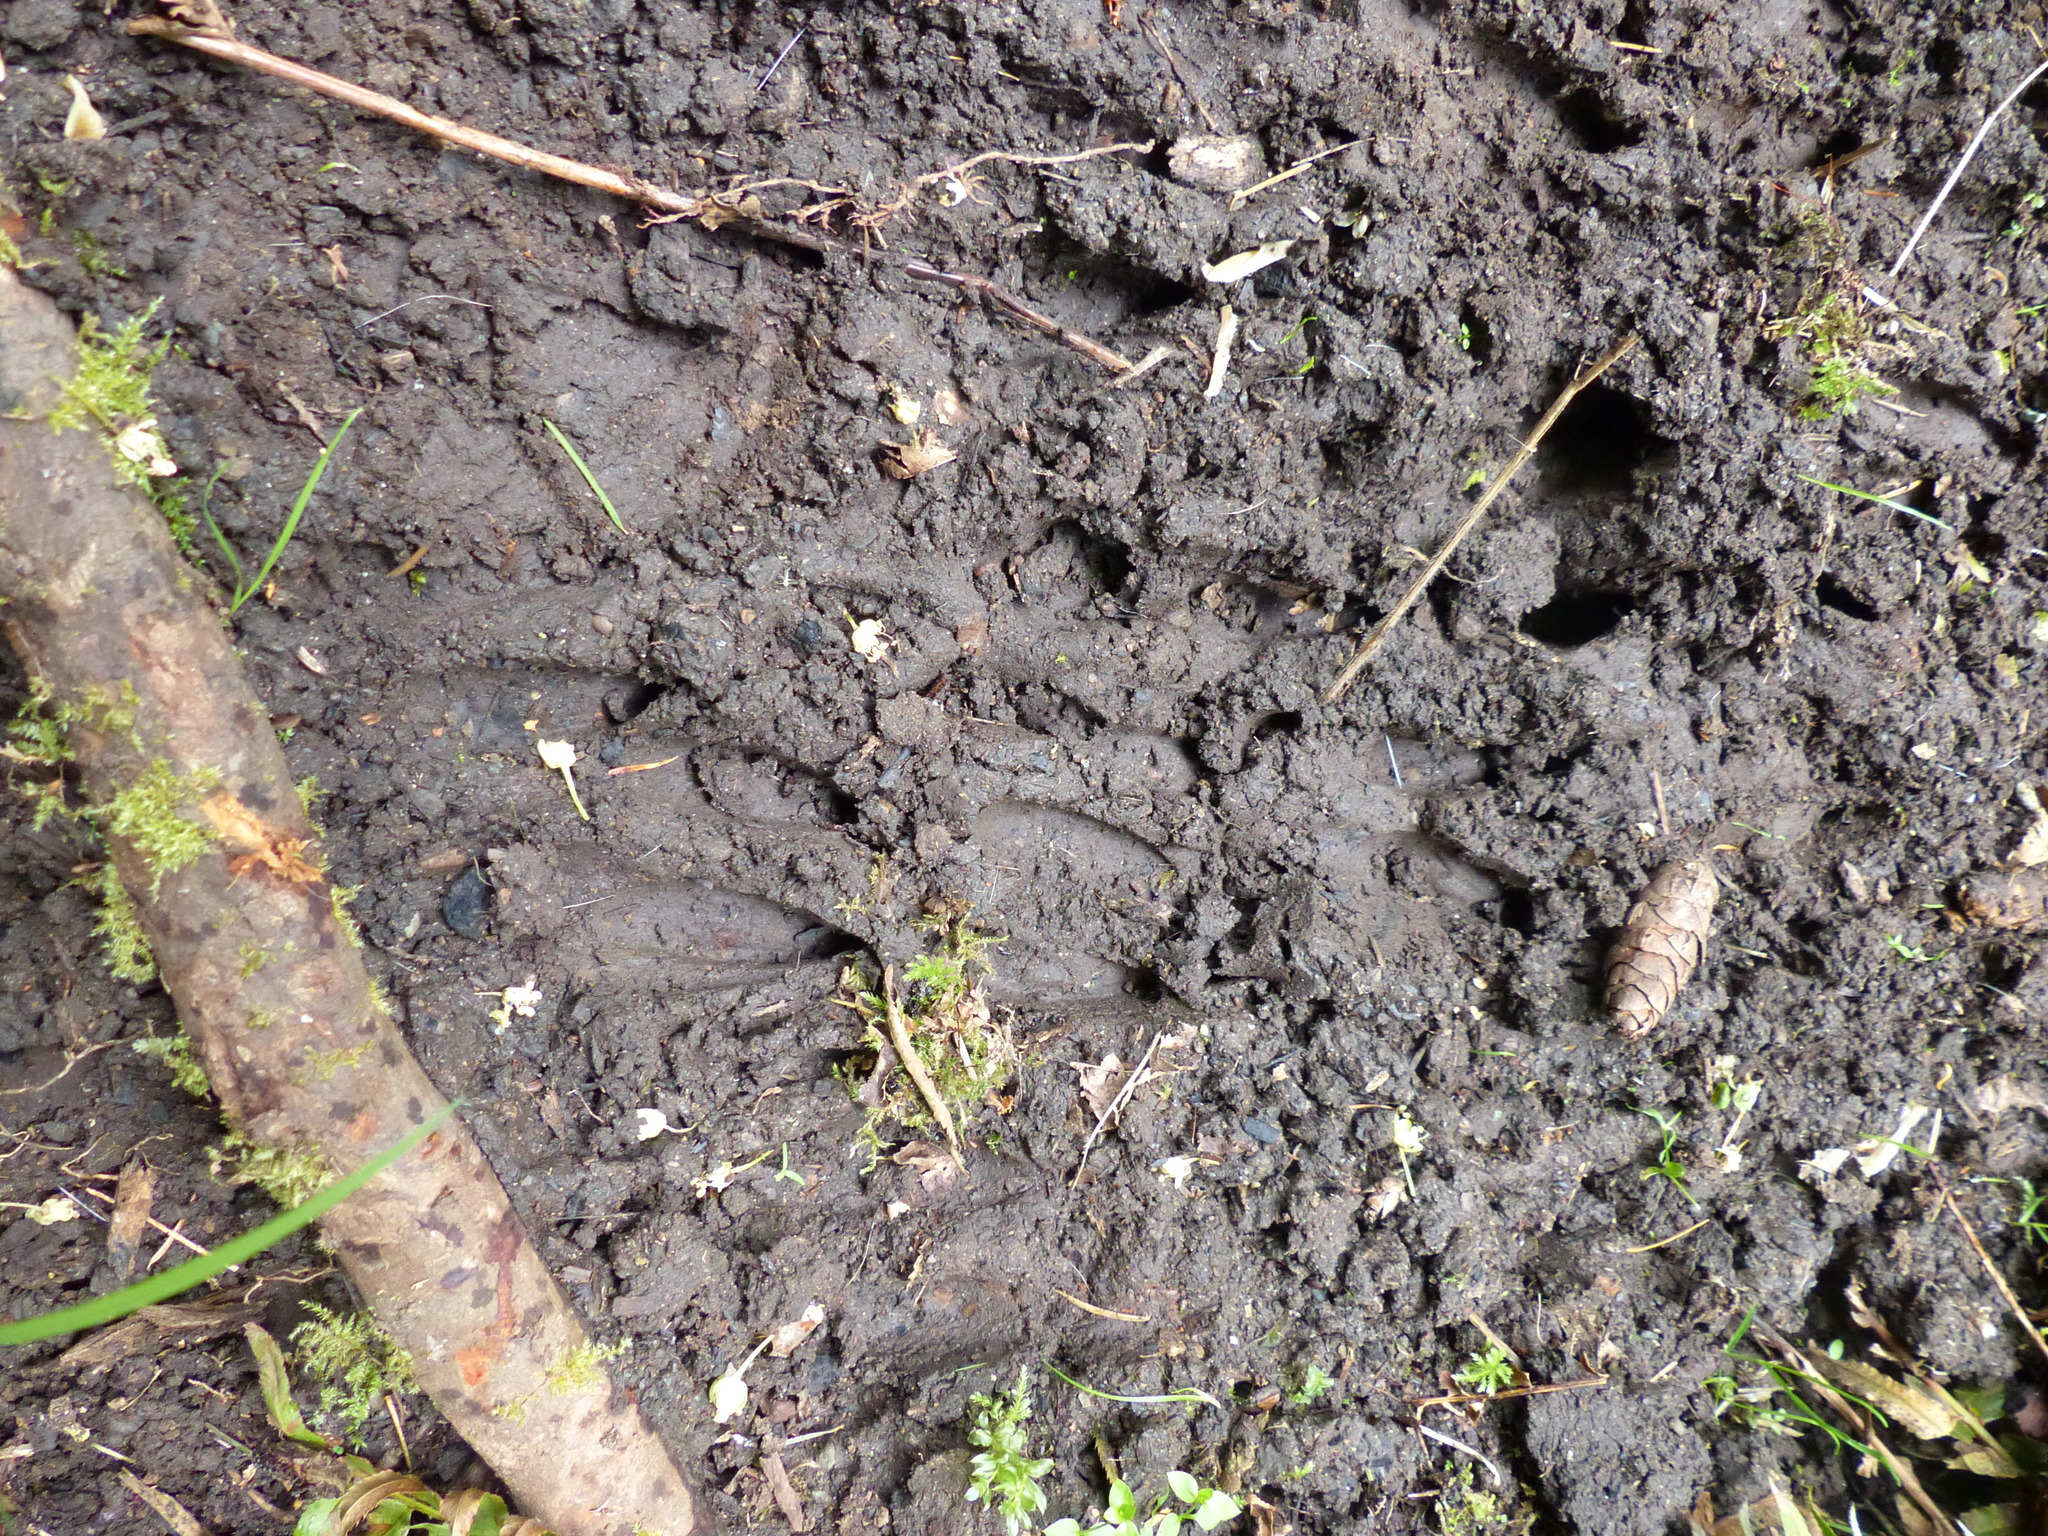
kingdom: Animalia
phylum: Chordata
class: Mammalia
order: Artiodactyla
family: Cervidae
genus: Odocoileus
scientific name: Odocoileus hemionus
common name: Mule deer
